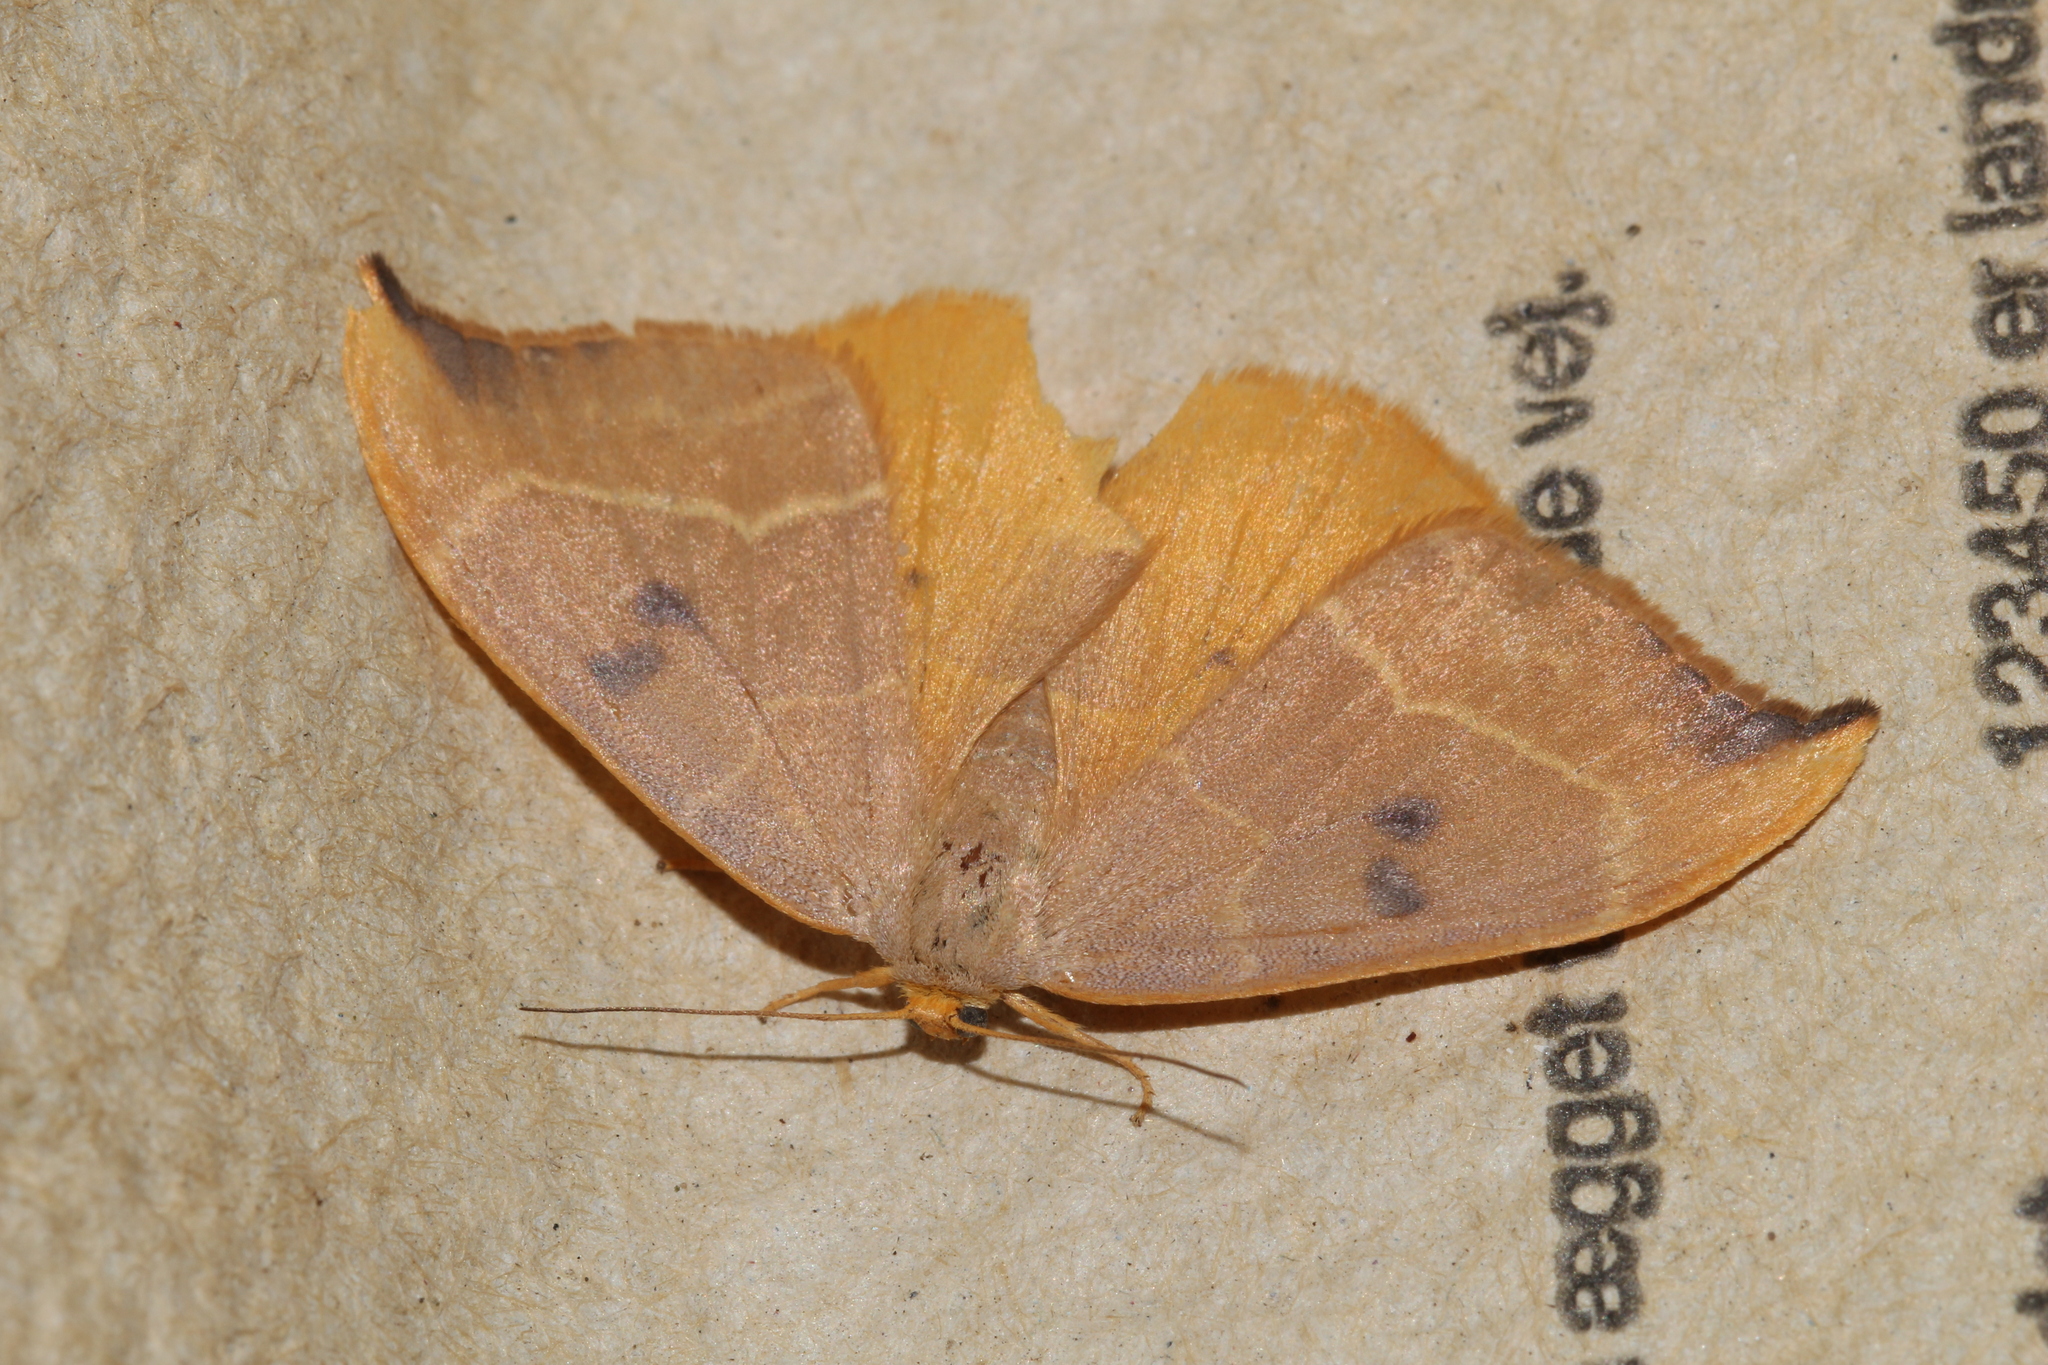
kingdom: Animalia
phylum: Arthropoda
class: Insecta
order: Lepidoptera
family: Drepanidae
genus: Watsonalla
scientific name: Watsonalla binaria
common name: Oak hook-tip
